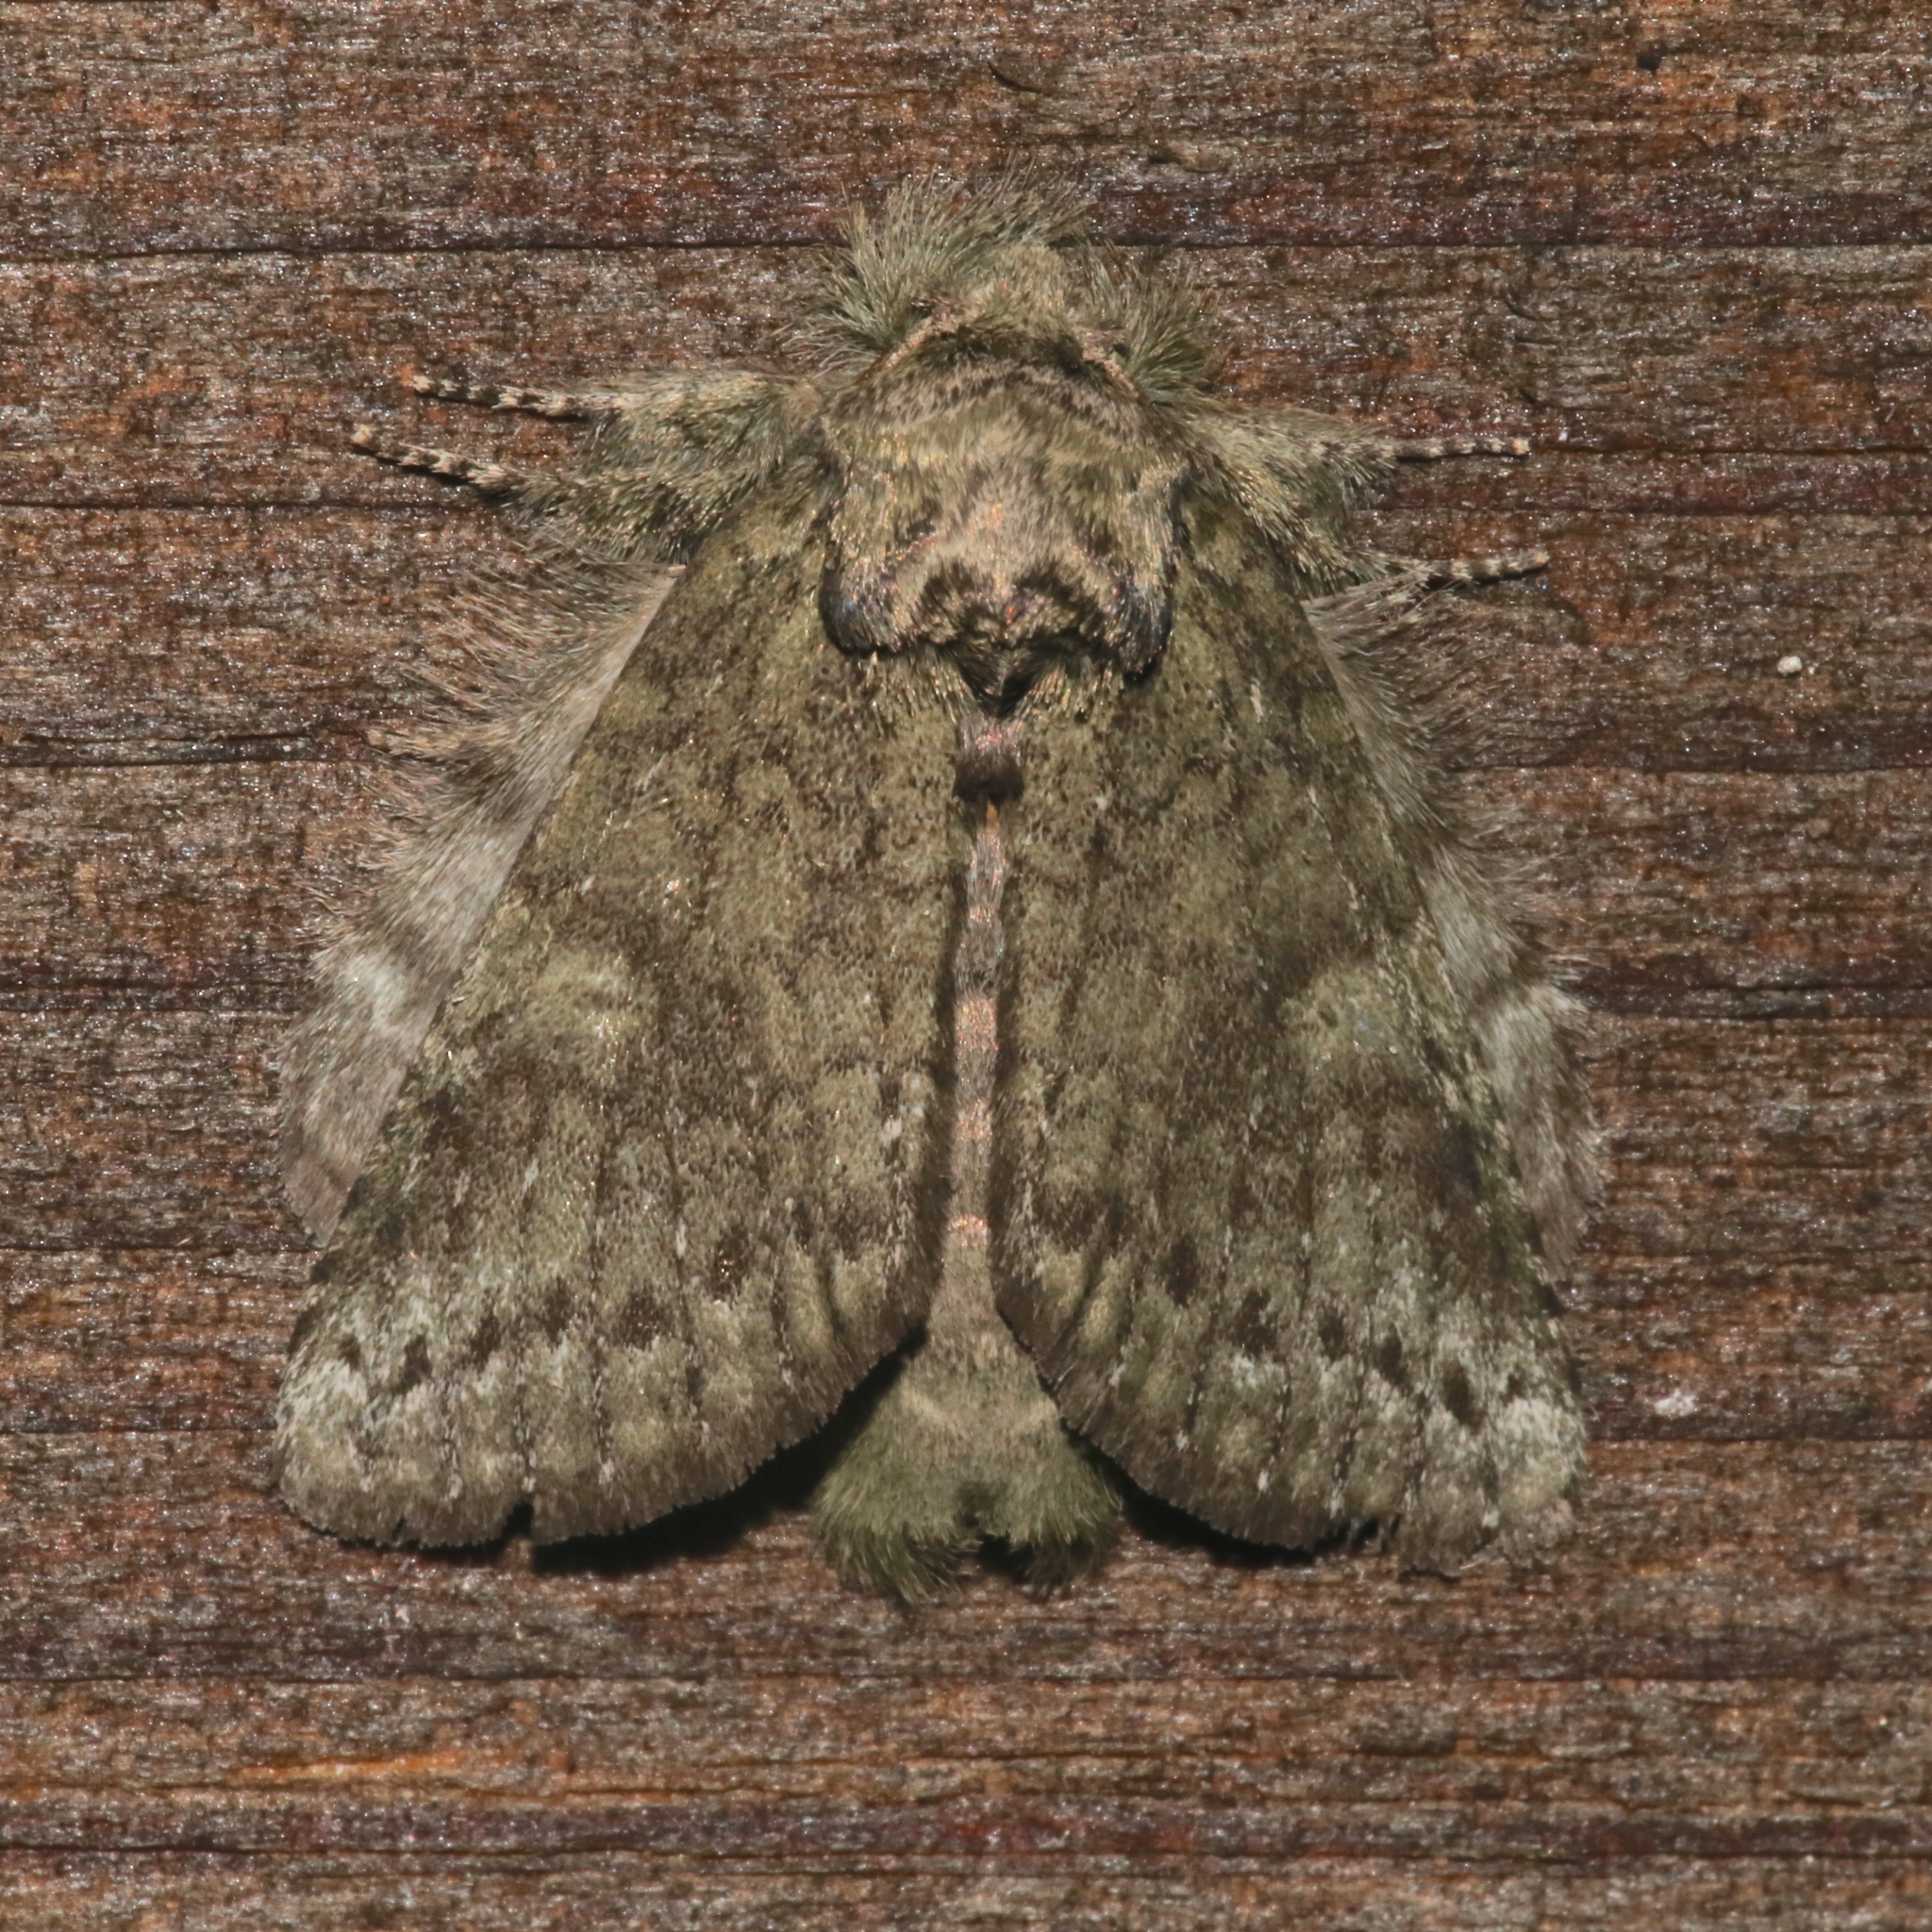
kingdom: Animalia
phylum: Arthropoda
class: Insecta
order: Lepidoptera
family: Notodontidae
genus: Disphragis
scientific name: Disphragis Cecrita guttivitta
